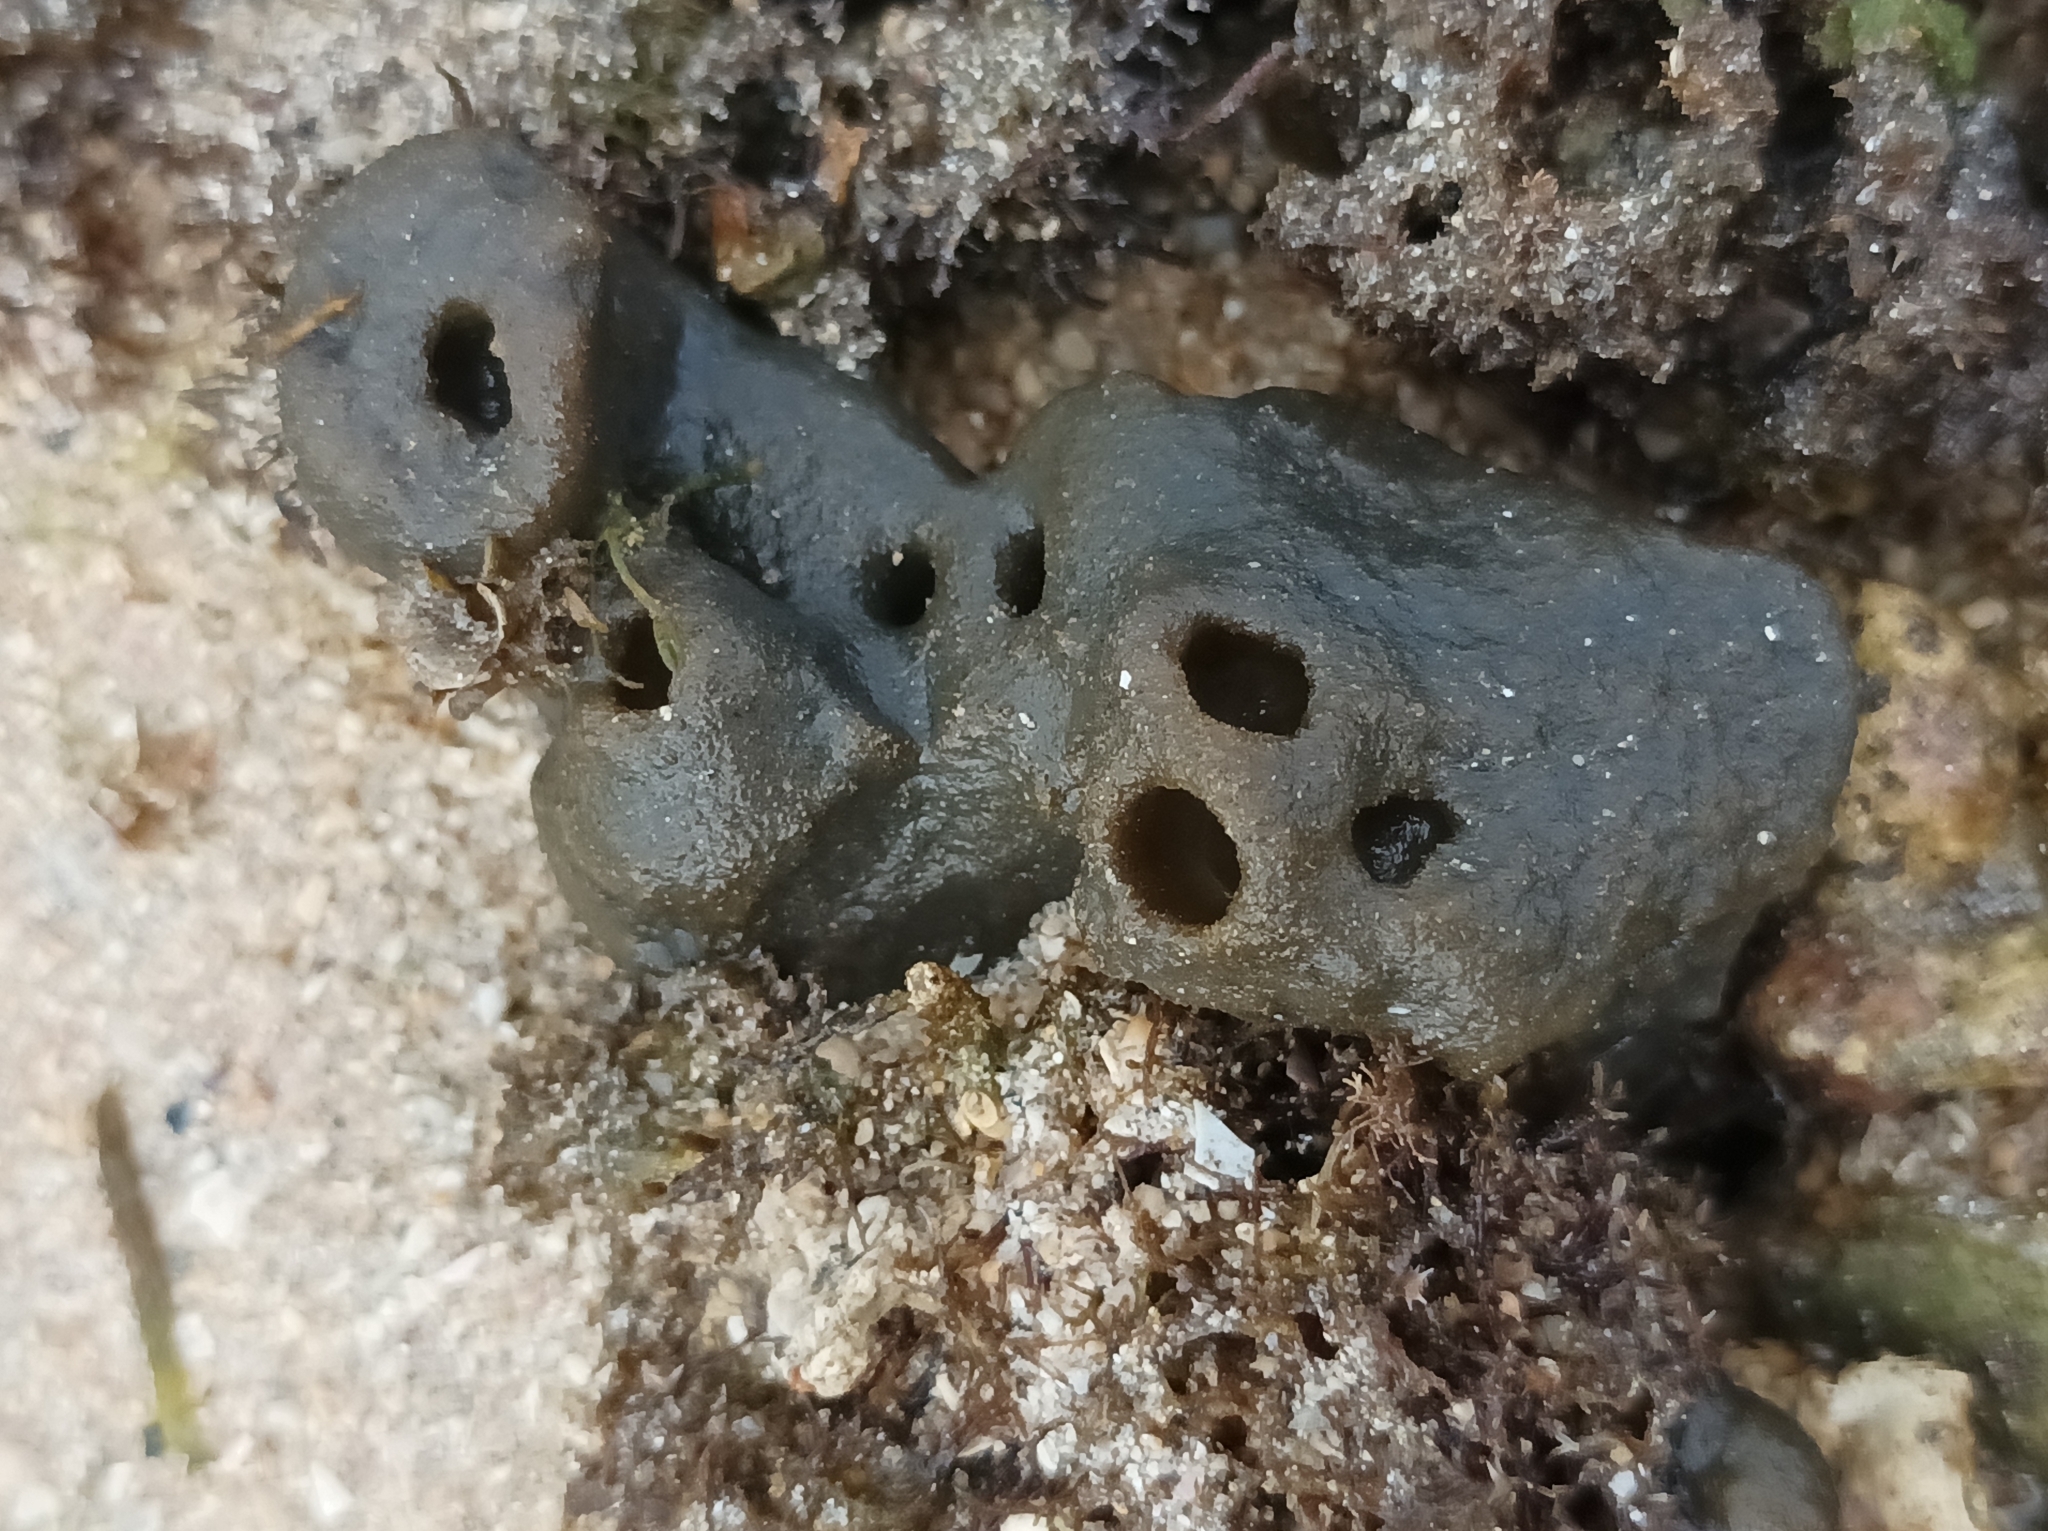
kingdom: Animalia
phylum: Porifera
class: Demospongiae
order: Clionaida
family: Clionaidae
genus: Spheciospongia
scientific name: Spheciospongia inconstans
